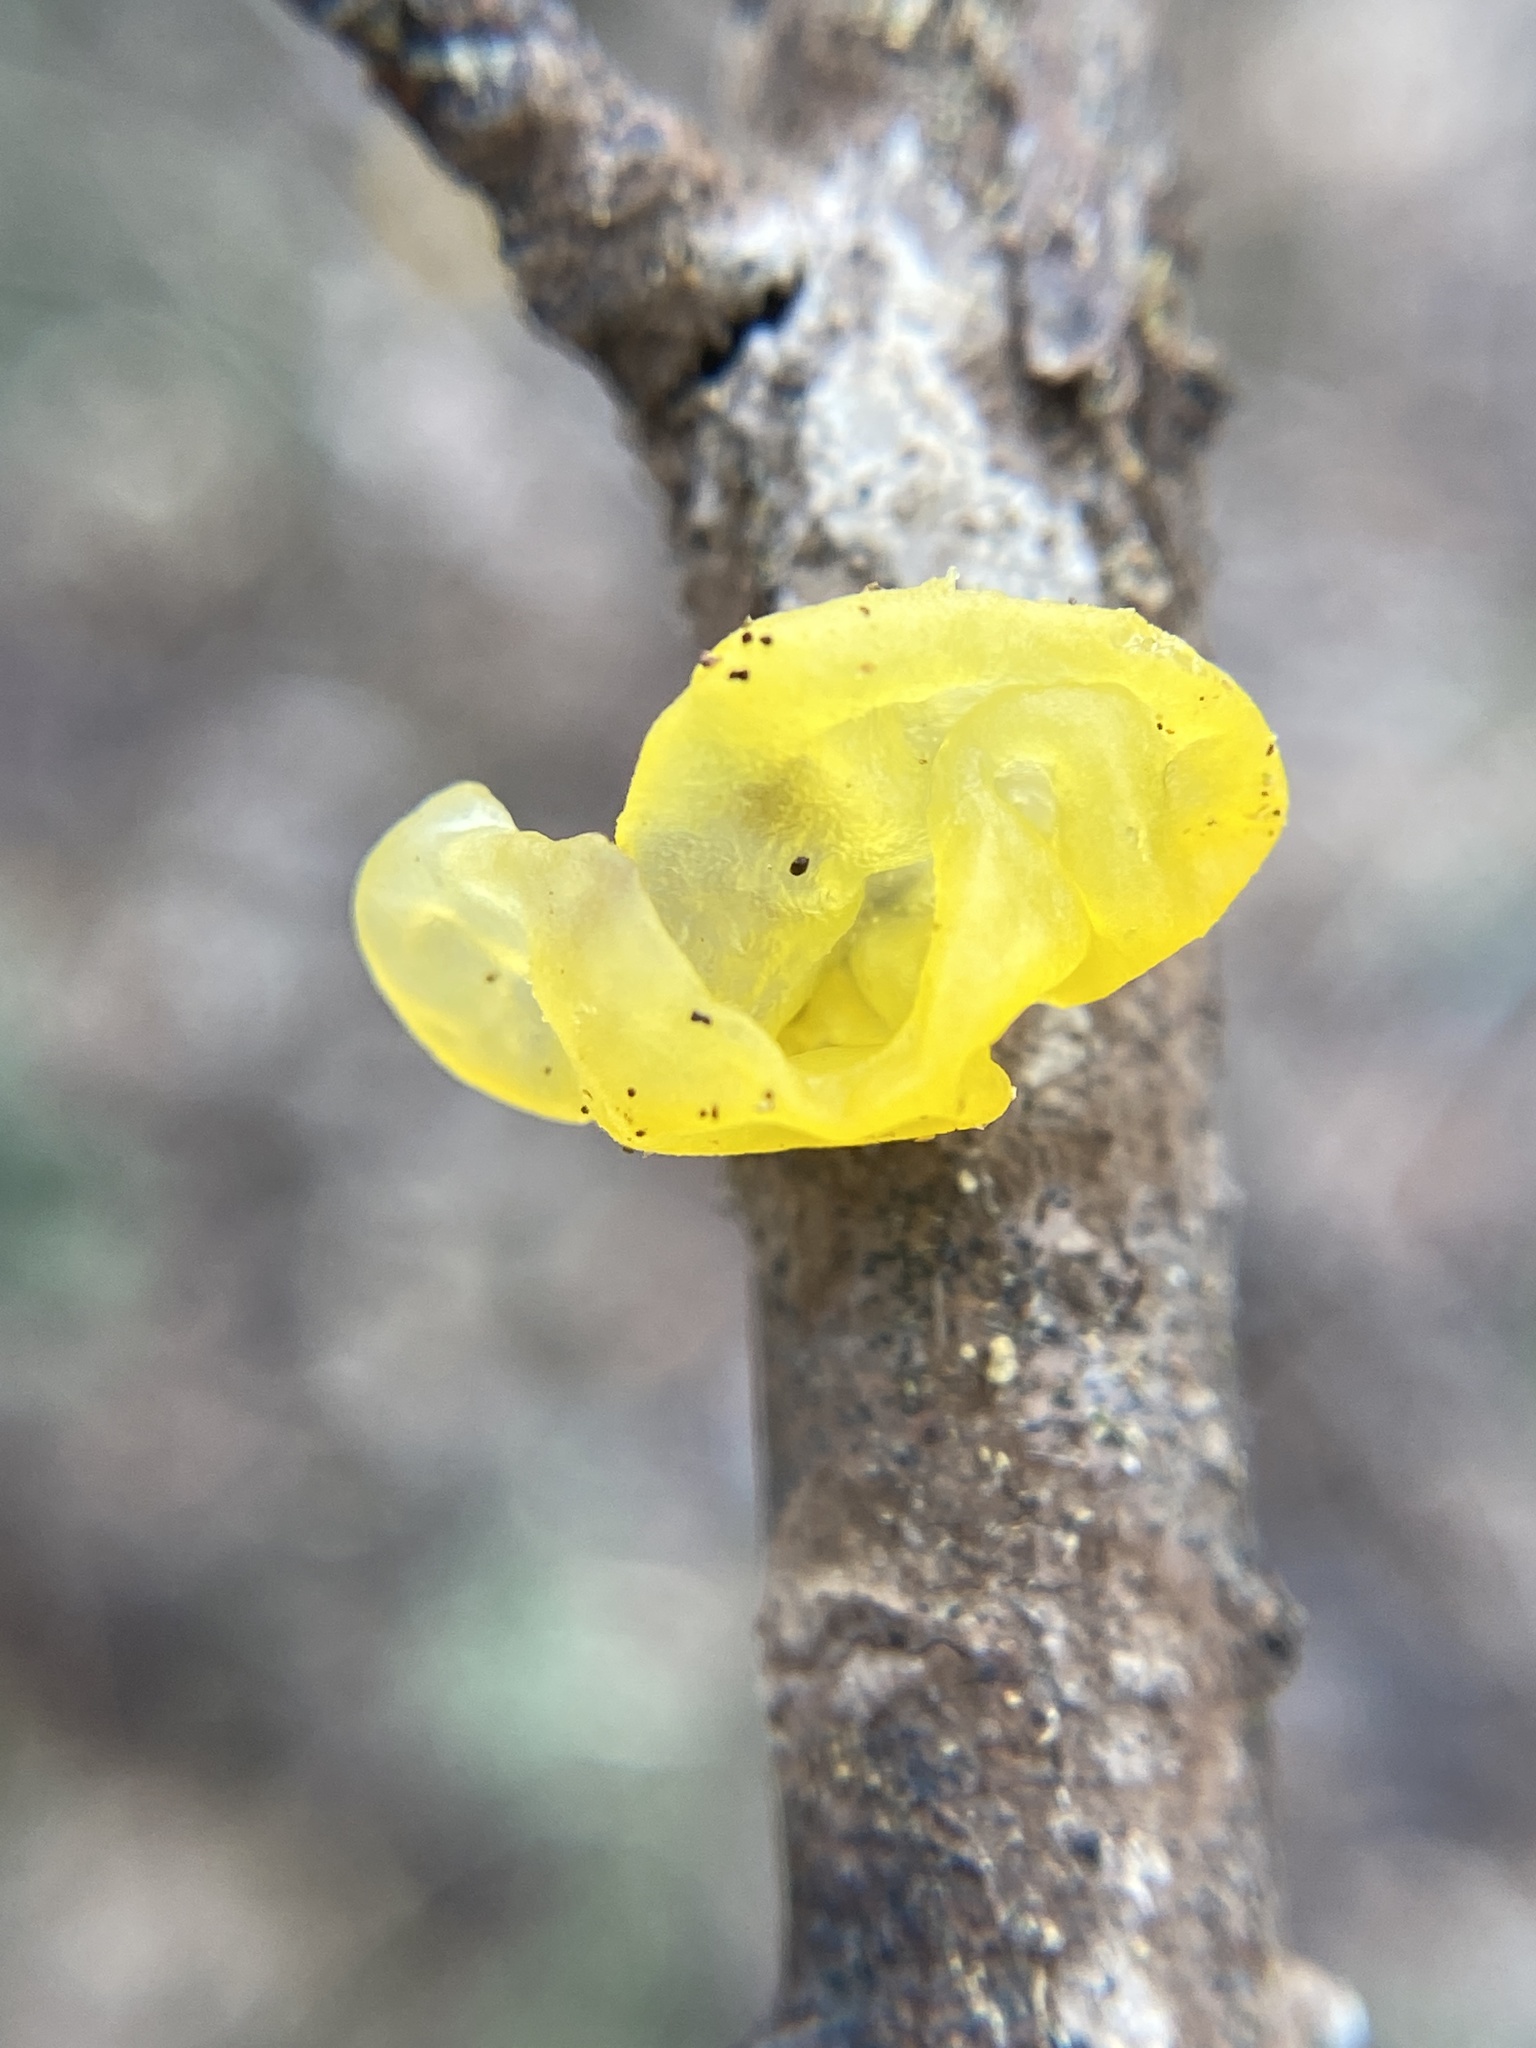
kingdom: Fungi
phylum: Basidiomycota
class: Tremellomycetes
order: Tremellales
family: Tremellaceae
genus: Tremella
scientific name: Tremella mesenterica
